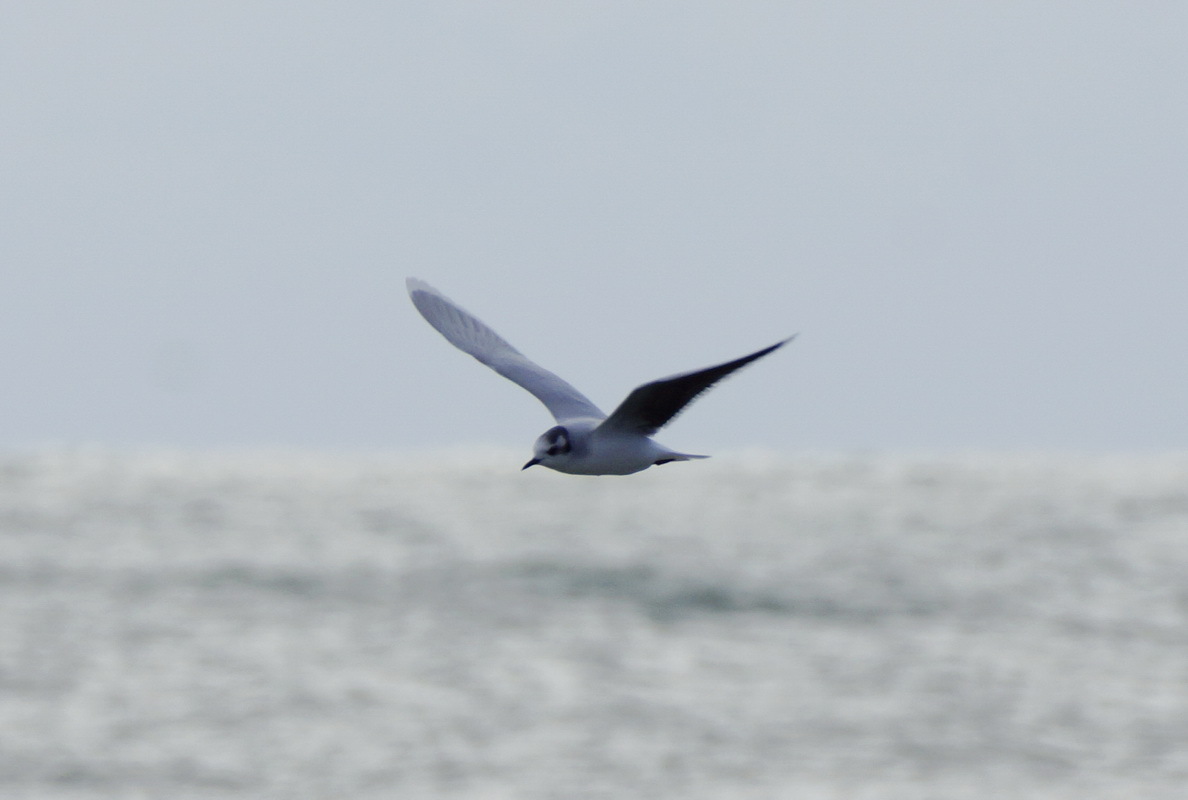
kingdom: Animalia
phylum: Chordata
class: Aves
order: Charadriiformes
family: Laridae
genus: Hydrocoloeus
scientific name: Hydrocoloeus minutus
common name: Little gull
